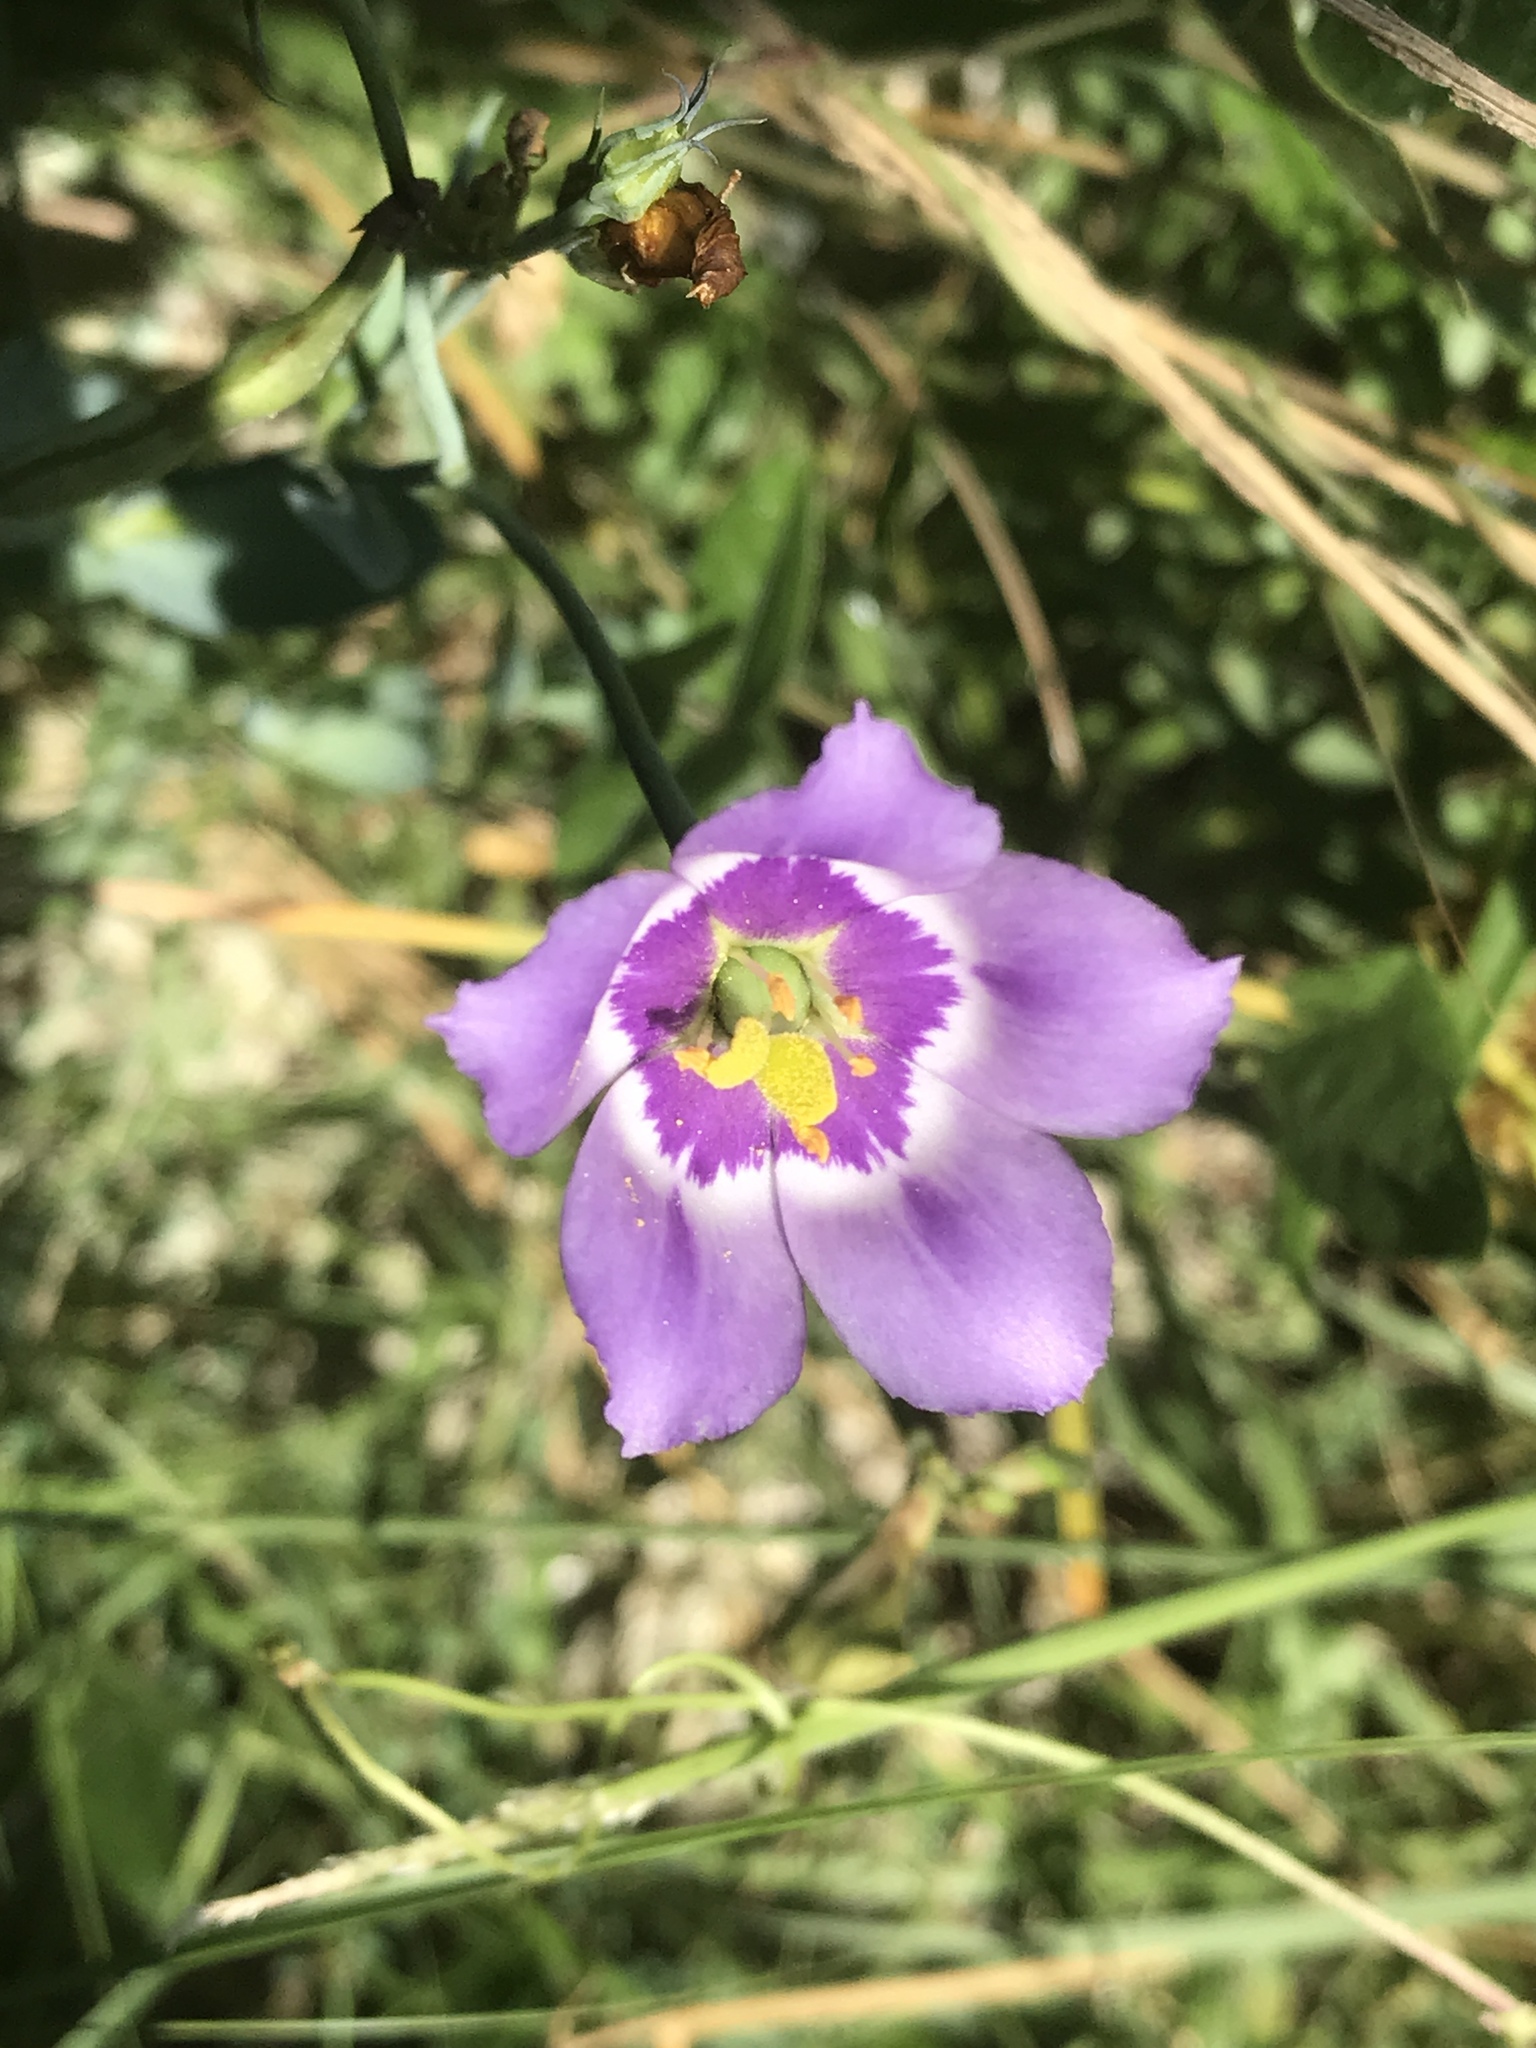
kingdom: Plantae
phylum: Tracheophyta
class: Magnoliopsida
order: Gentianales
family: Gentianaceae
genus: Eustoma
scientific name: Eustoma exaltatum
